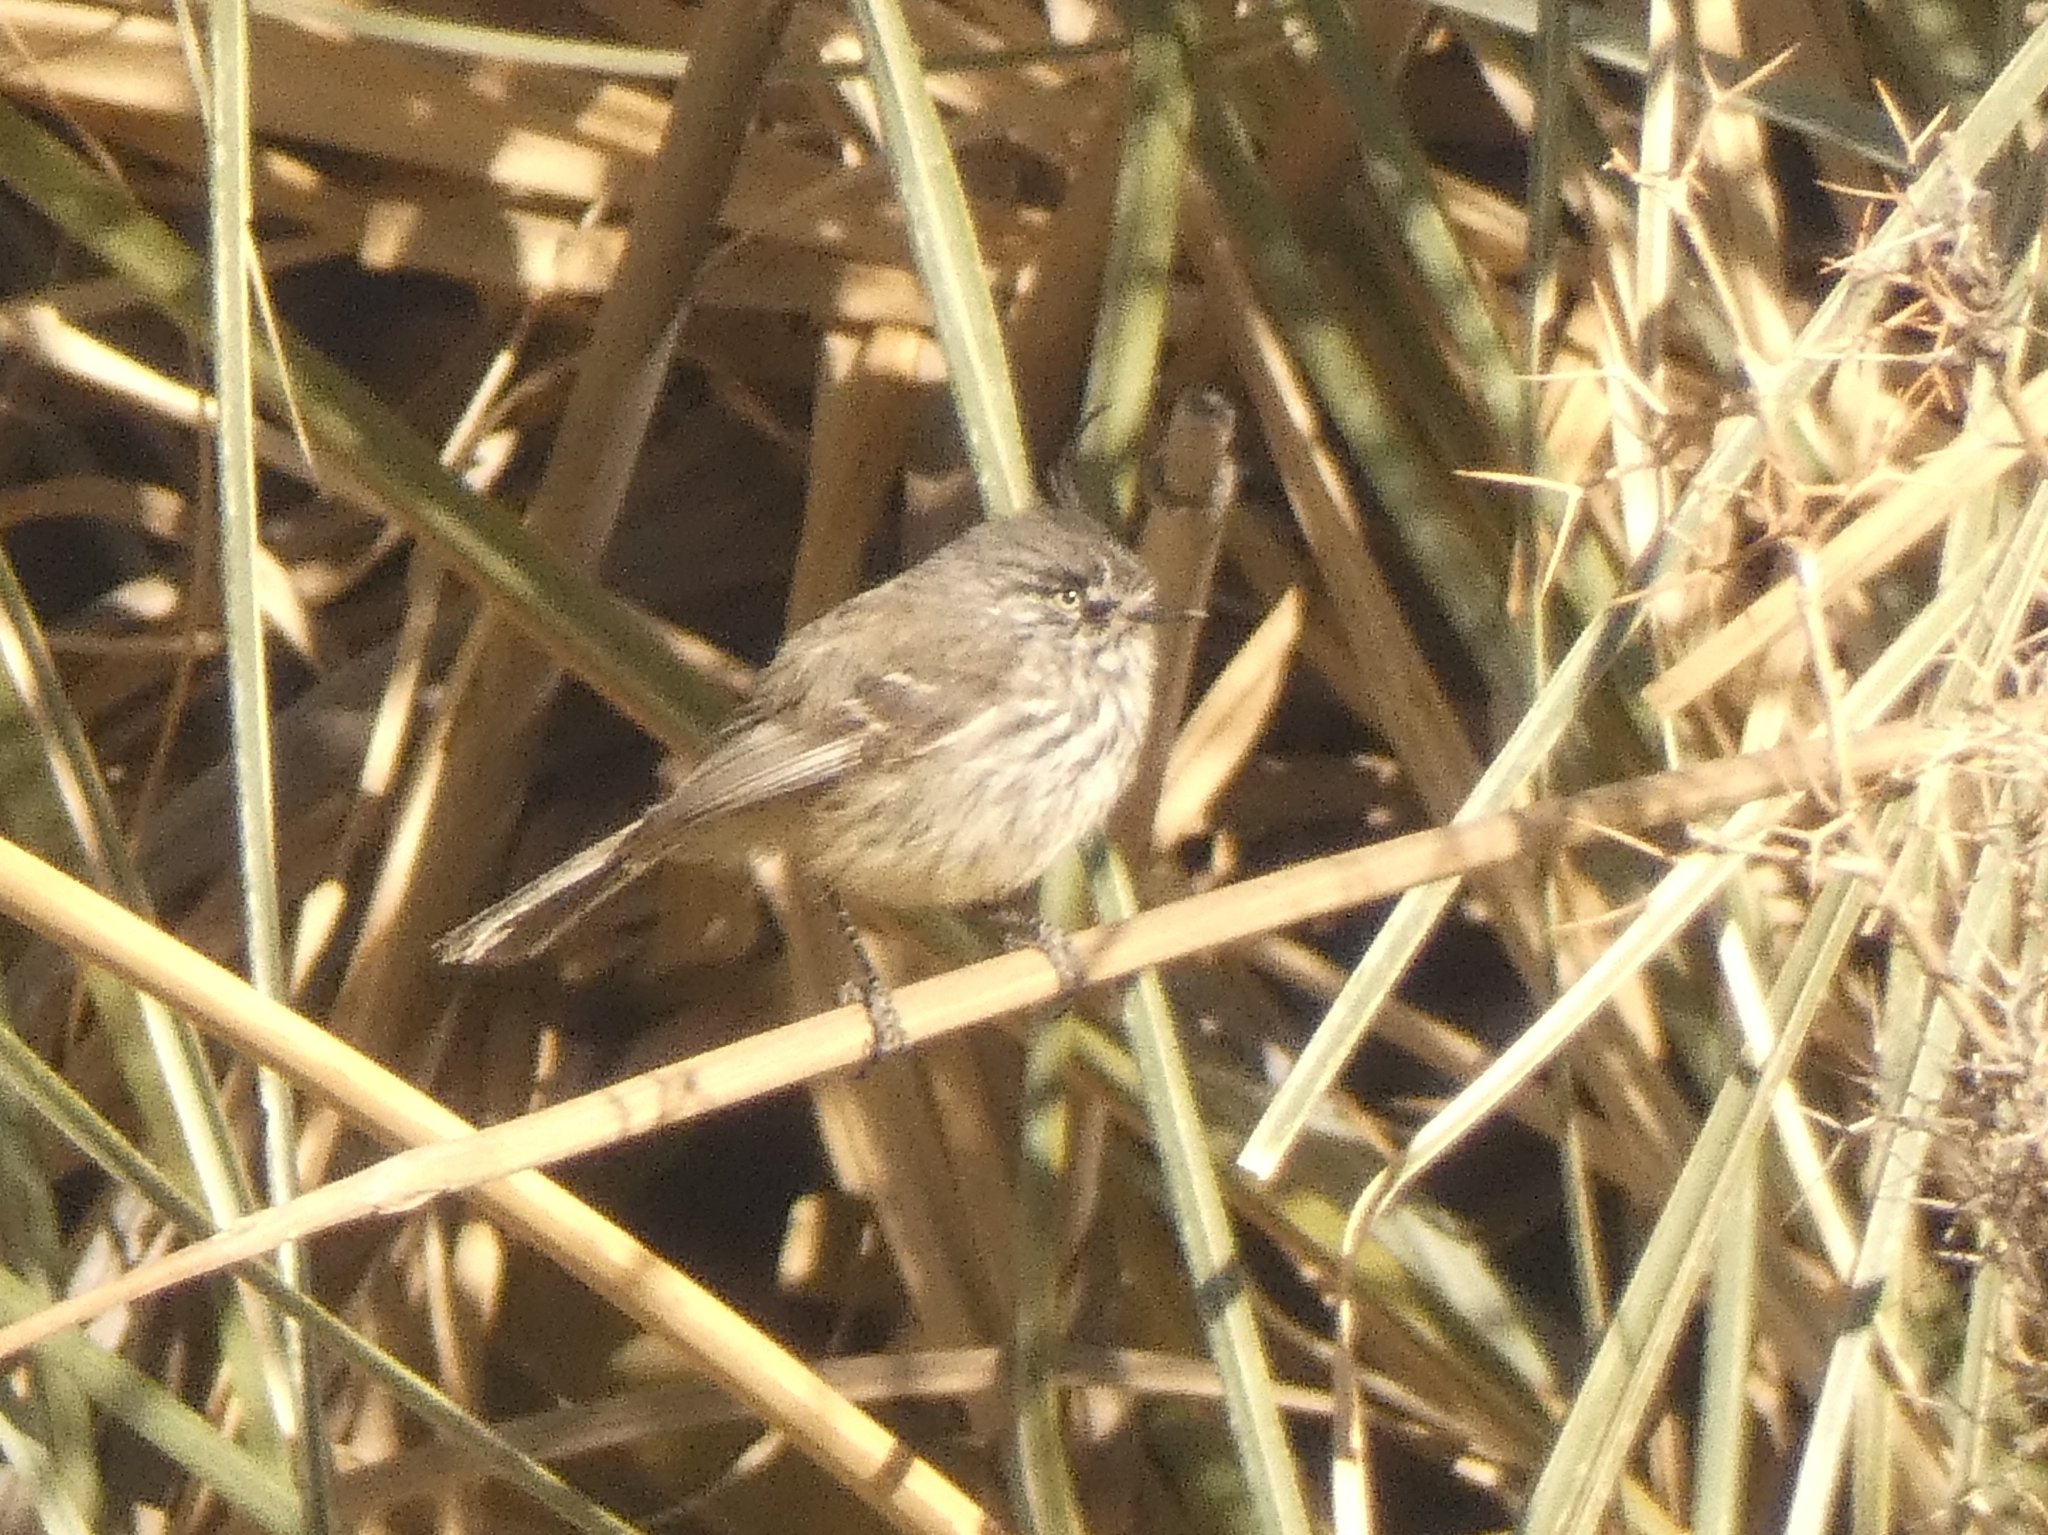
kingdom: Animalia
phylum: Chordata
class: Aves
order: Passeriformes
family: Tyrannidae
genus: Anairetes
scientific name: Anairetes parulus
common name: Tufted tit-tyrant
